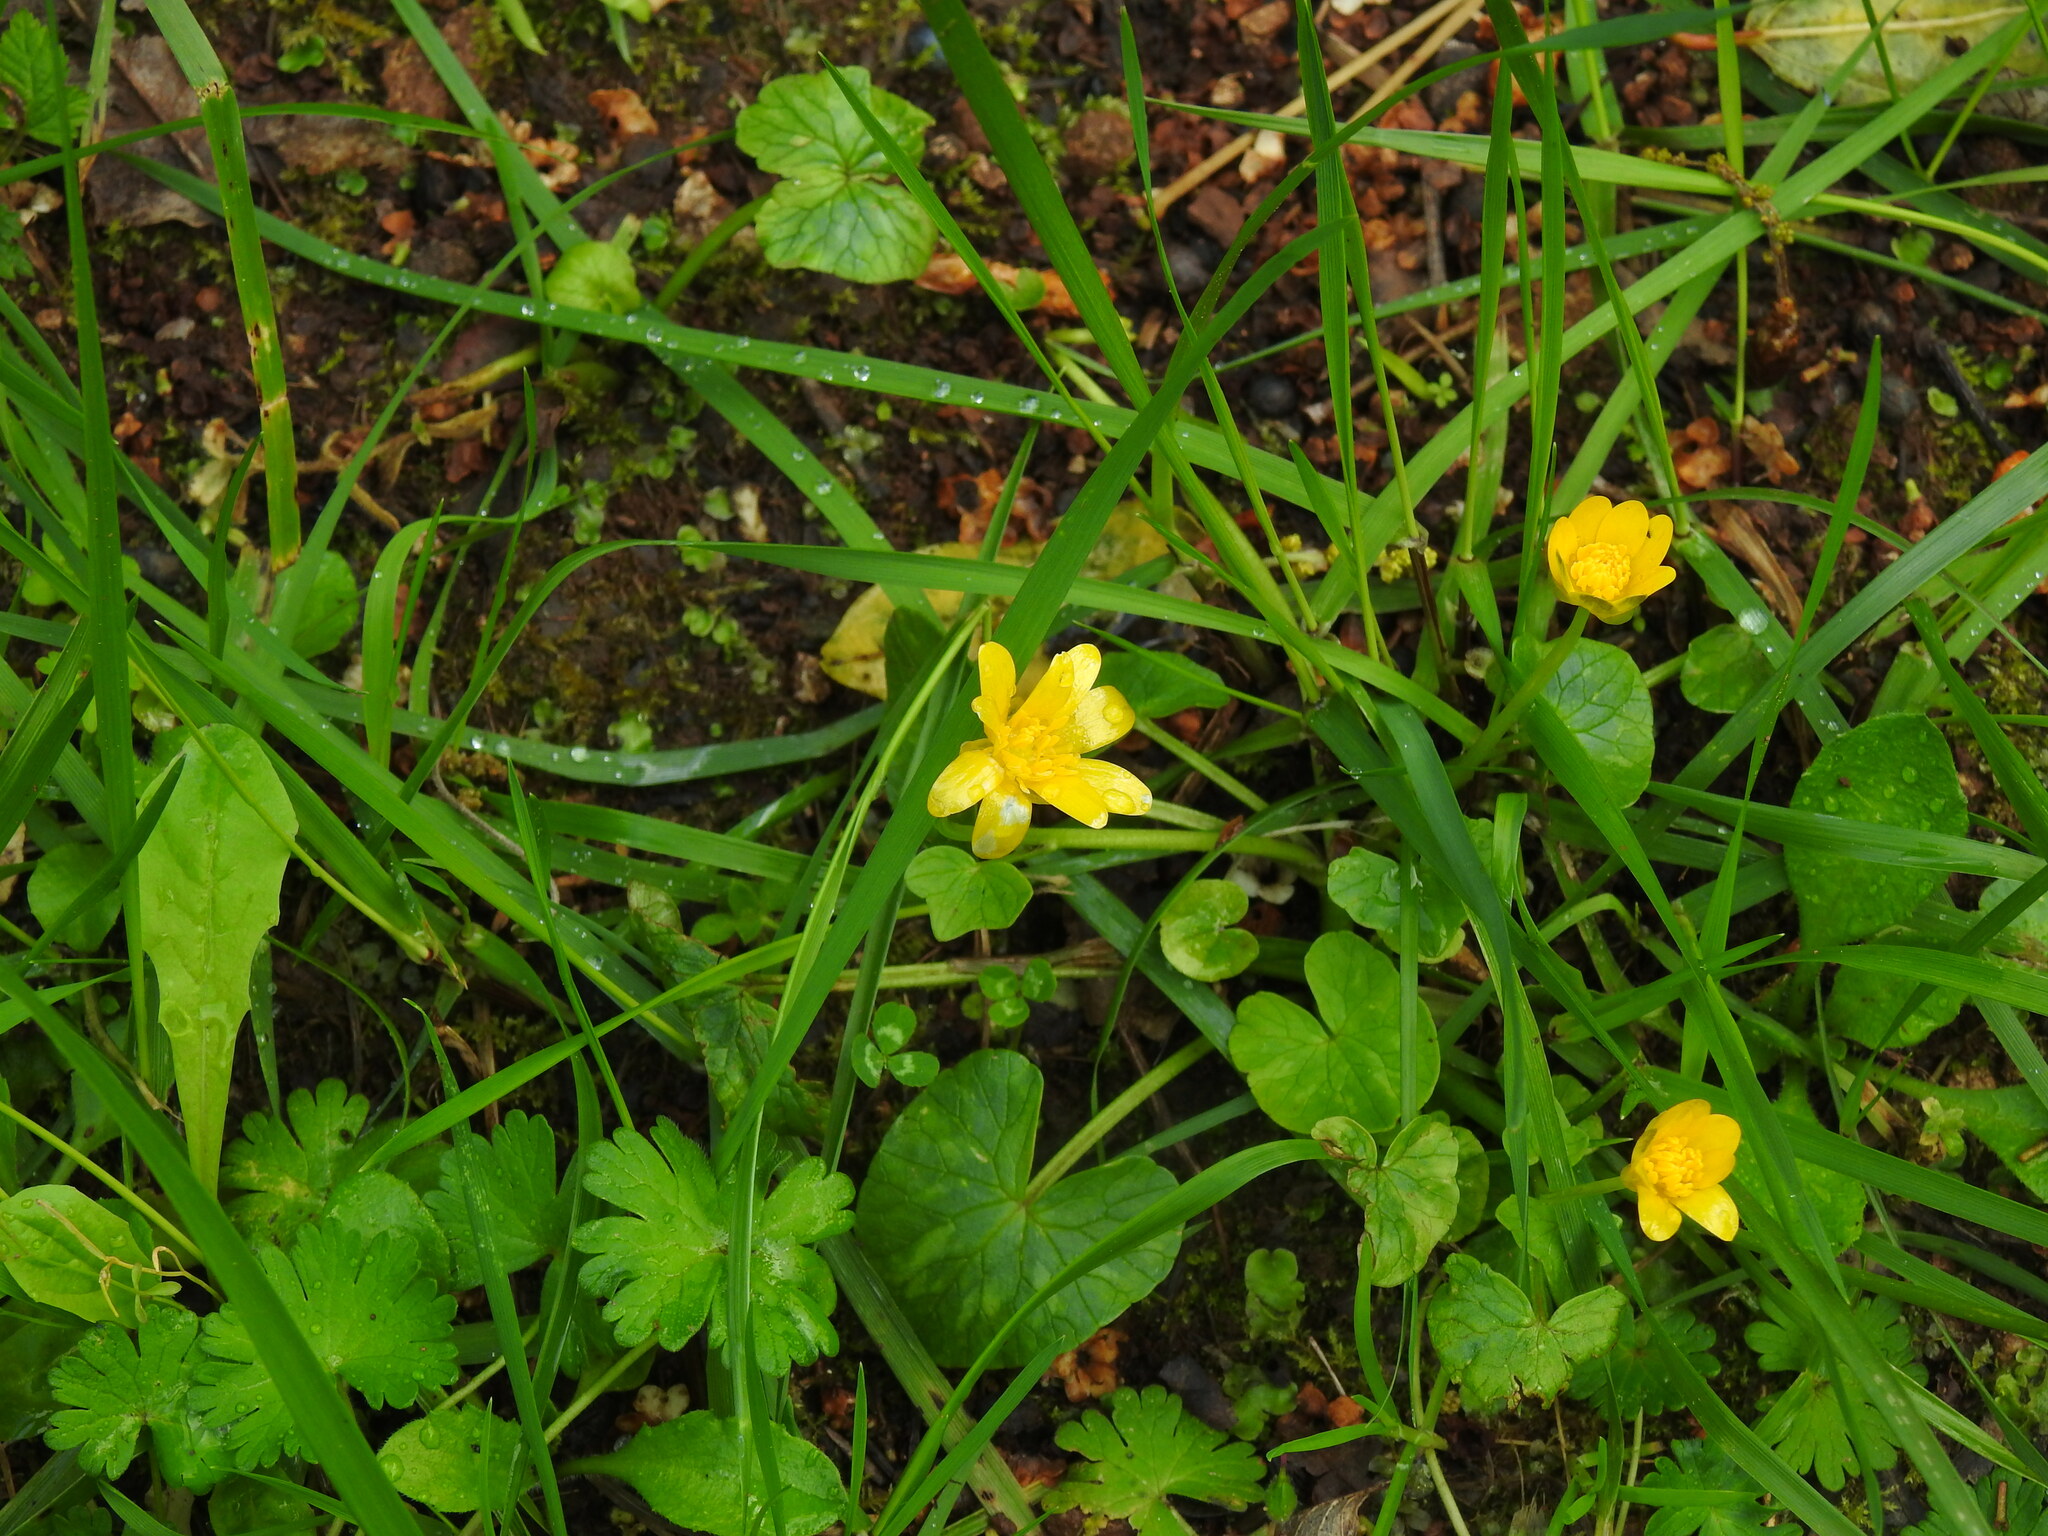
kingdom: Plantae
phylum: Tracheophyta
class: Magnoliopsida
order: Ranunculales
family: Ranunculaceae
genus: Ficaria
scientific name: Ficaria verna
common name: Lesser celandine
